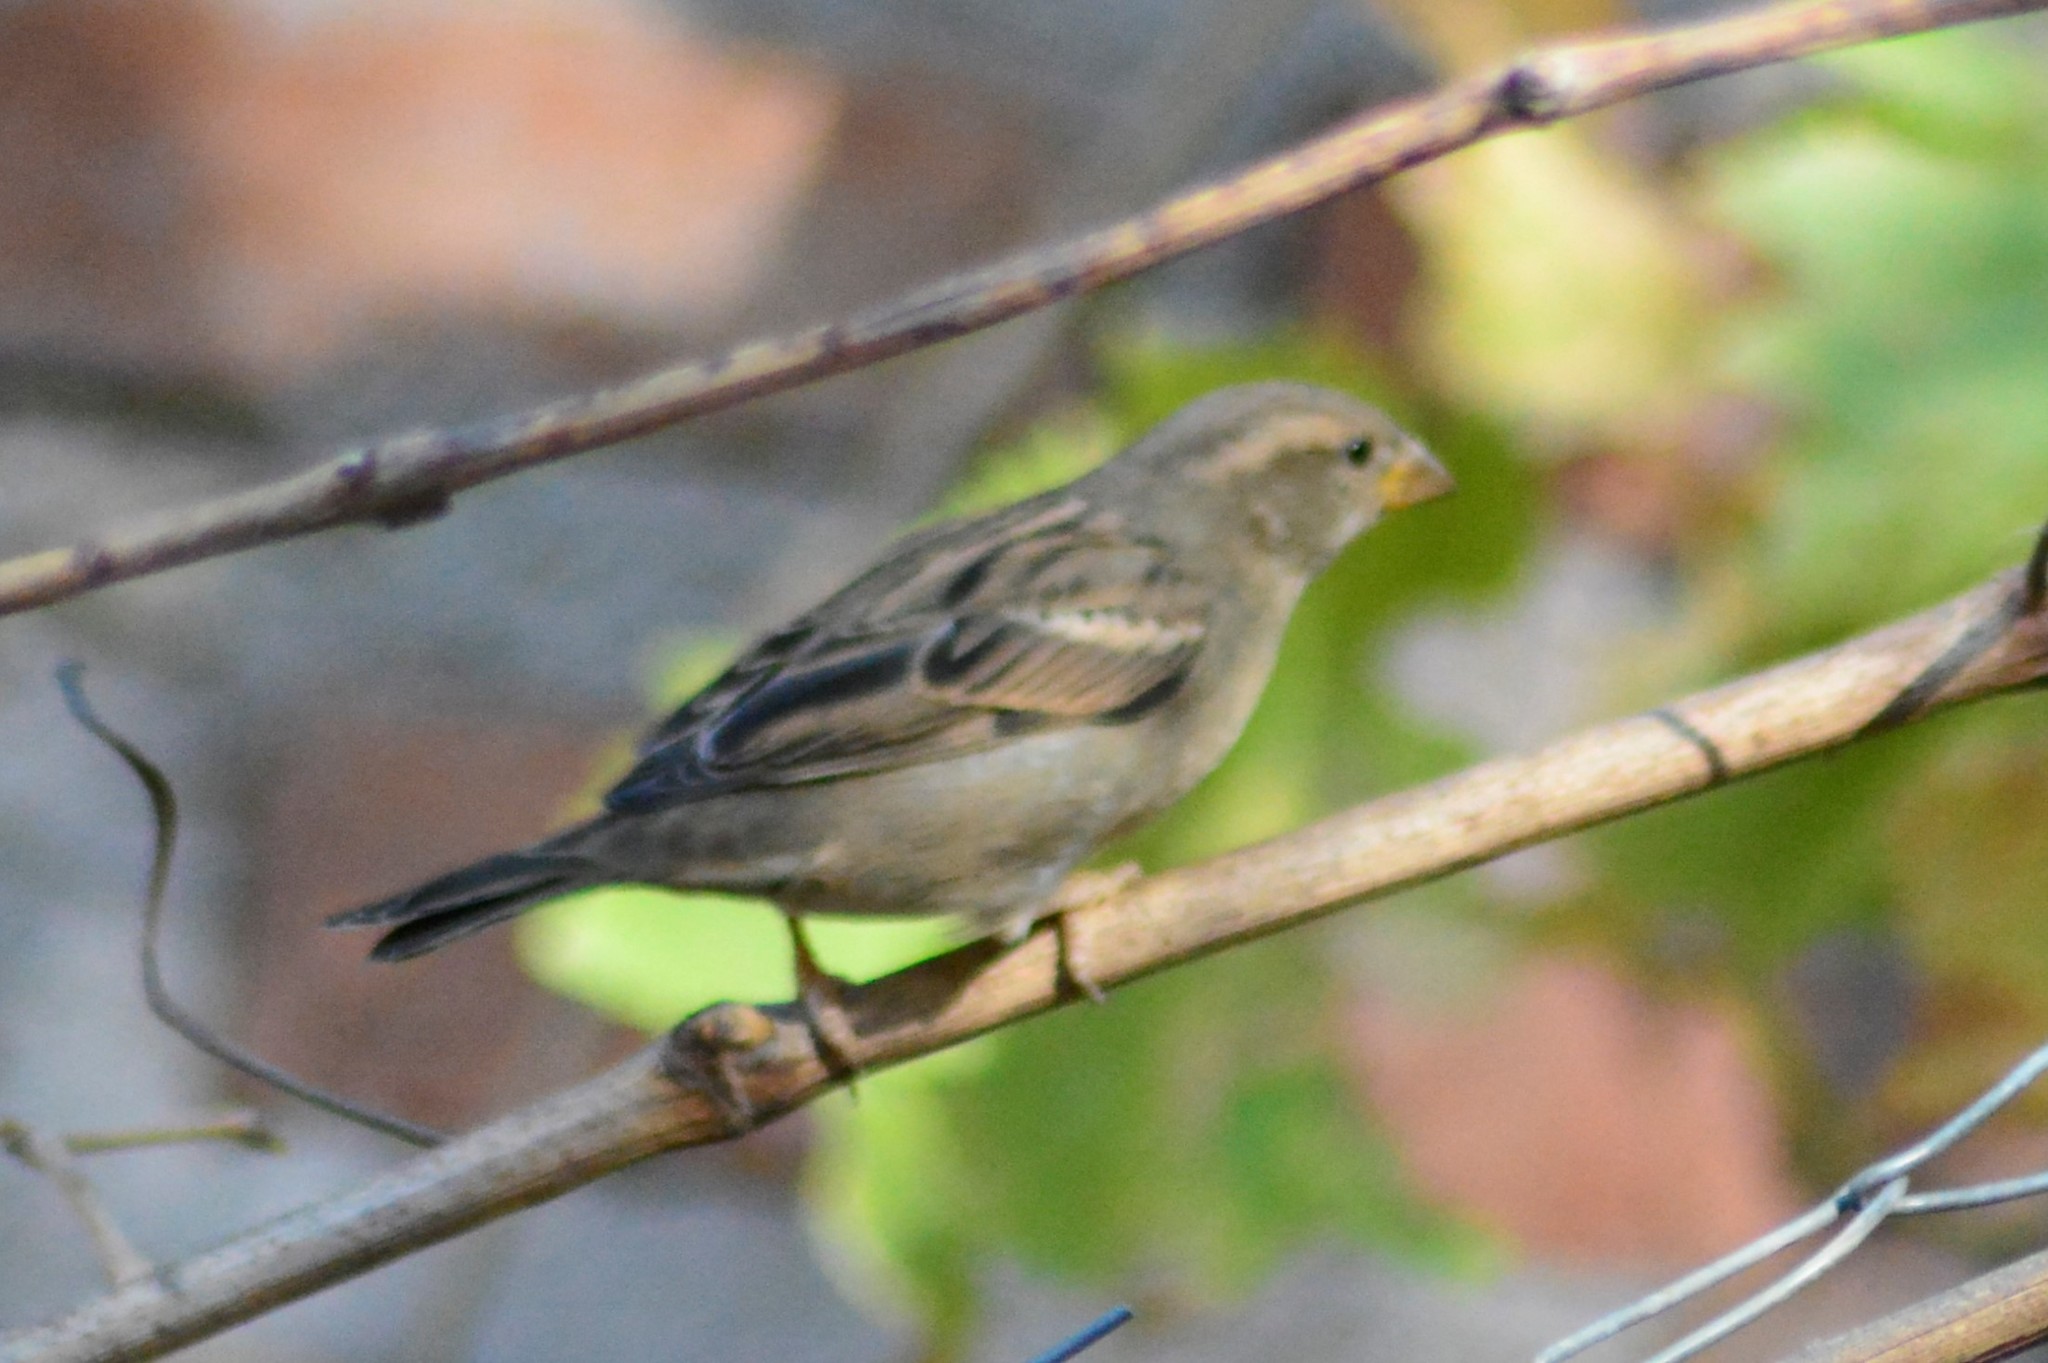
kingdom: Animalia
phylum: Chordata
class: Aves
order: Passeriformes
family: Passeridae
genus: Passer
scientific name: Passer domesticus
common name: House sparrow
